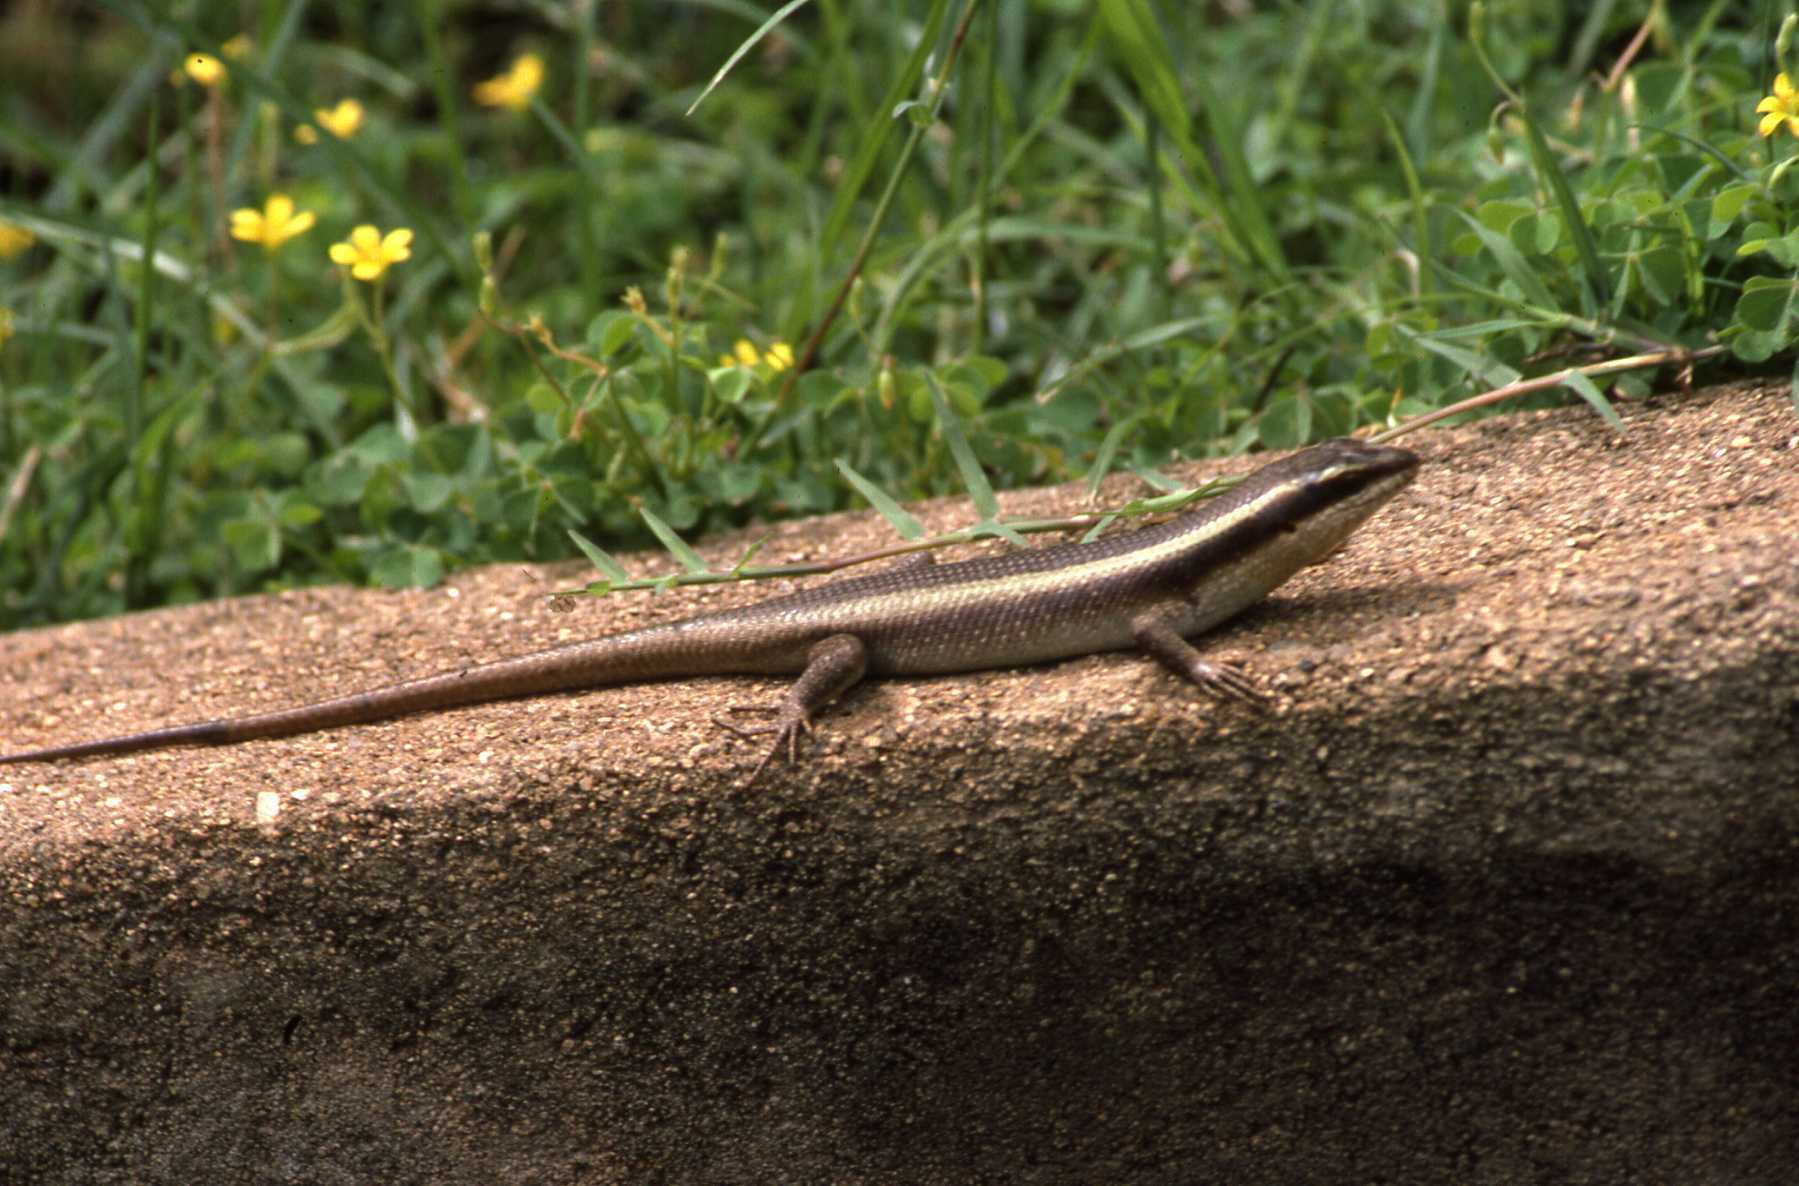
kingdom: Animalia
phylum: Chordata
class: Squamata
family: Scincidae
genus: Trachylepis
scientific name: Trachylepis striata
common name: African striped mabuya
